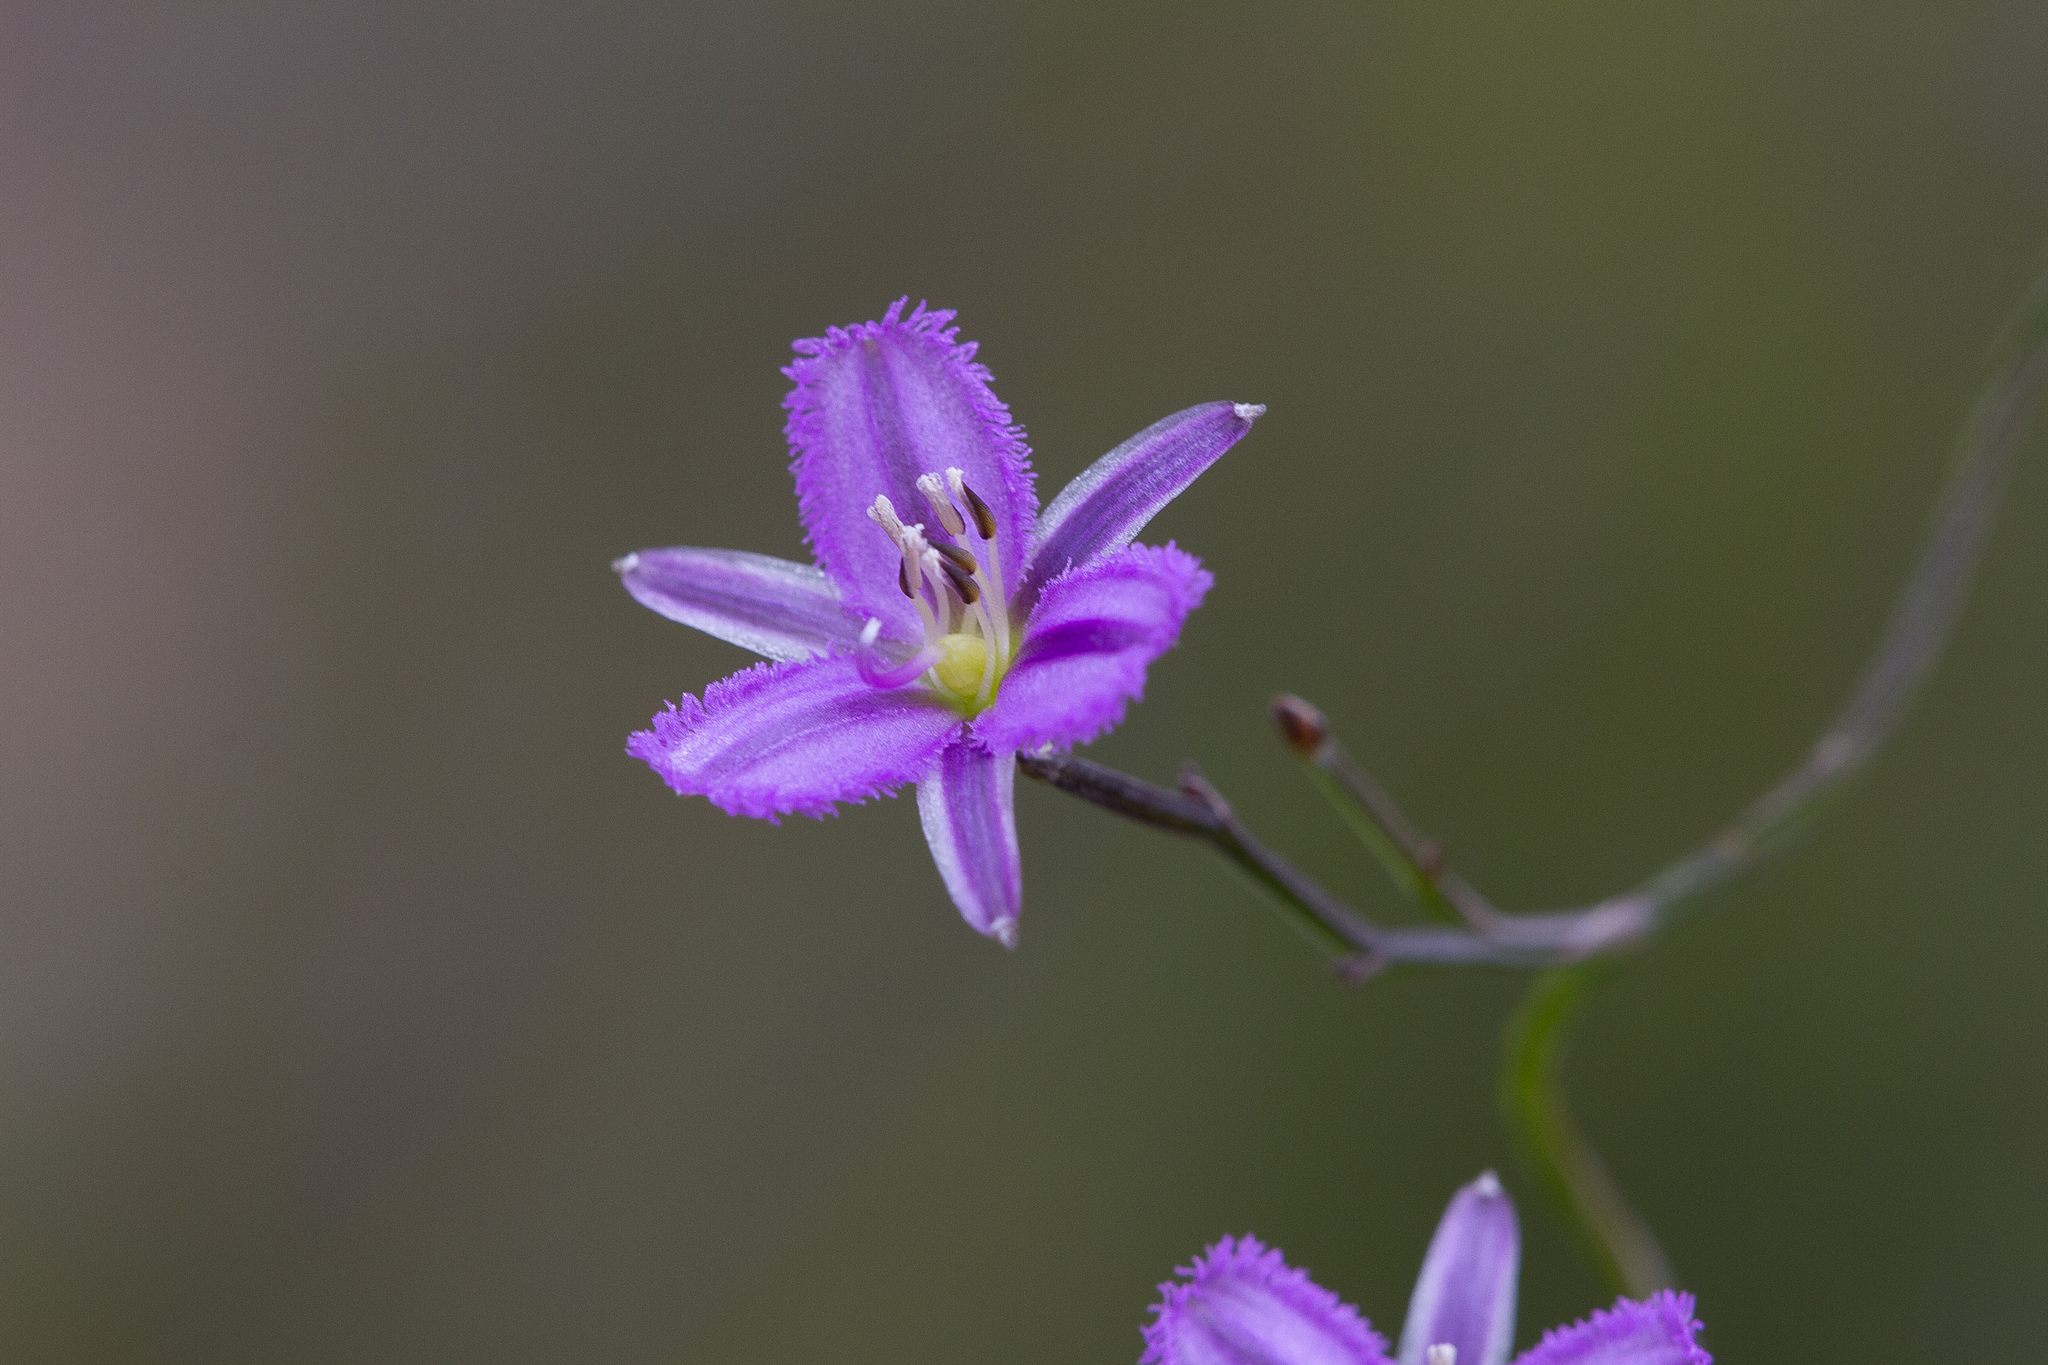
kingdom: Plantae
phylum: Tracheophyta
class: Liliopsida
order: Asparagales
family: Asparagaceae
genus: Thysanotus
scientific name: Thysanotus patersonii
